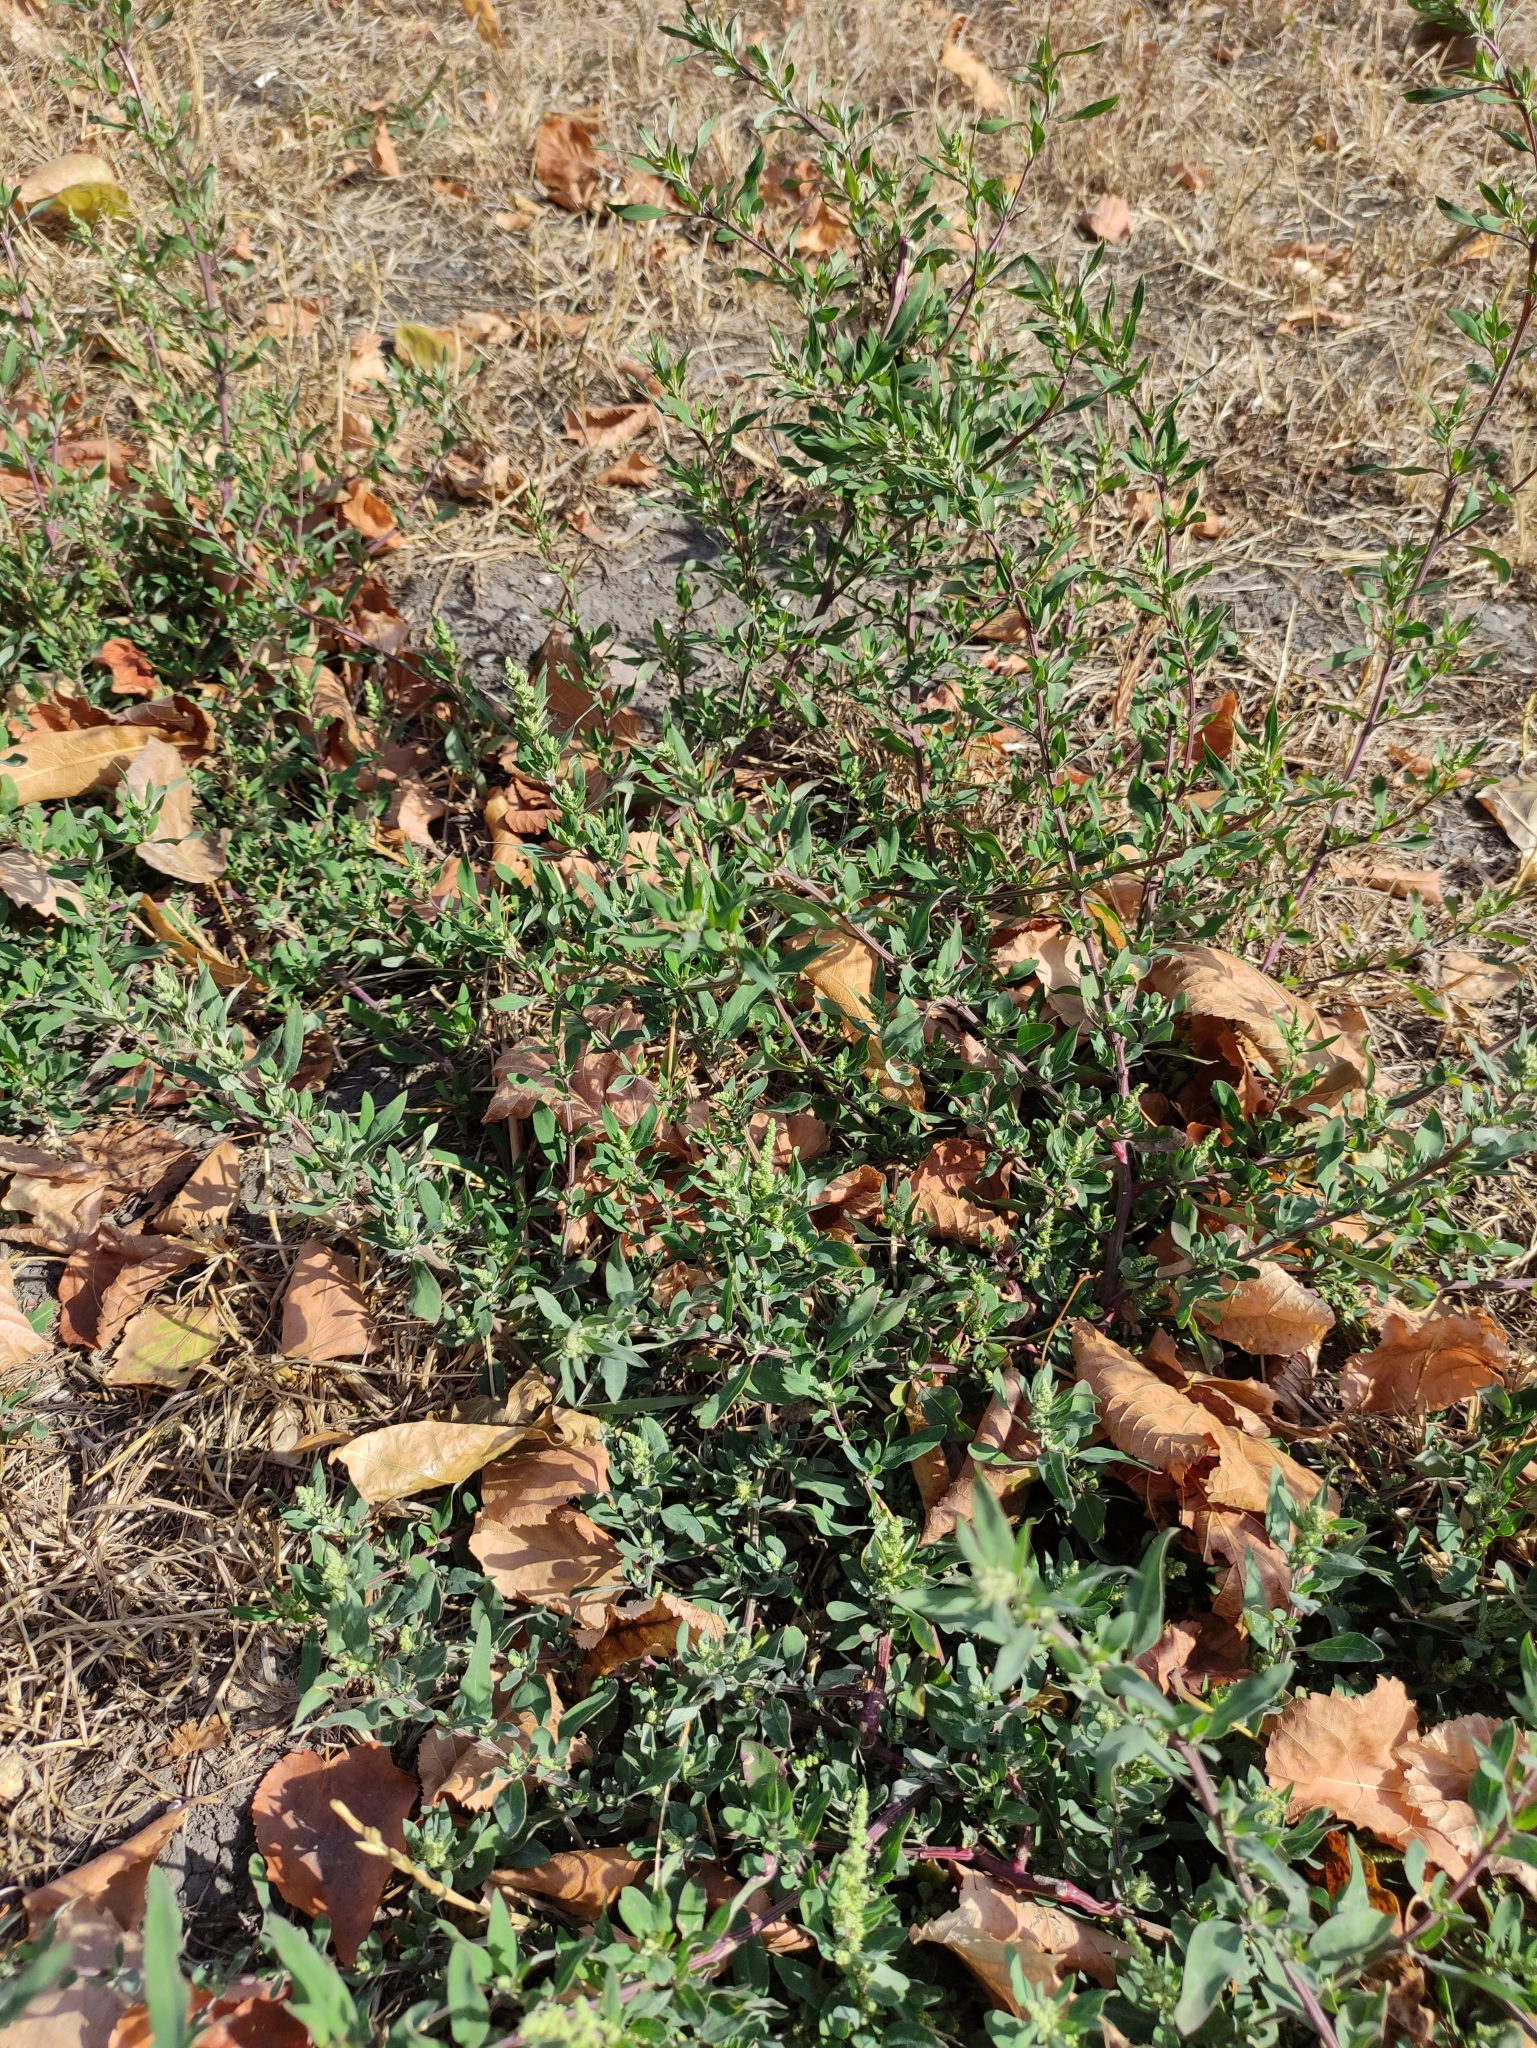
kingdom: Plantae
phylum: Tracheophyta
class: Magnoliopsida
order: Caryophyllales
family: Amaranthaceae
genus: Chenopodium
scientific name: Chenopodium betaceum
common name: Striped goosefoot
